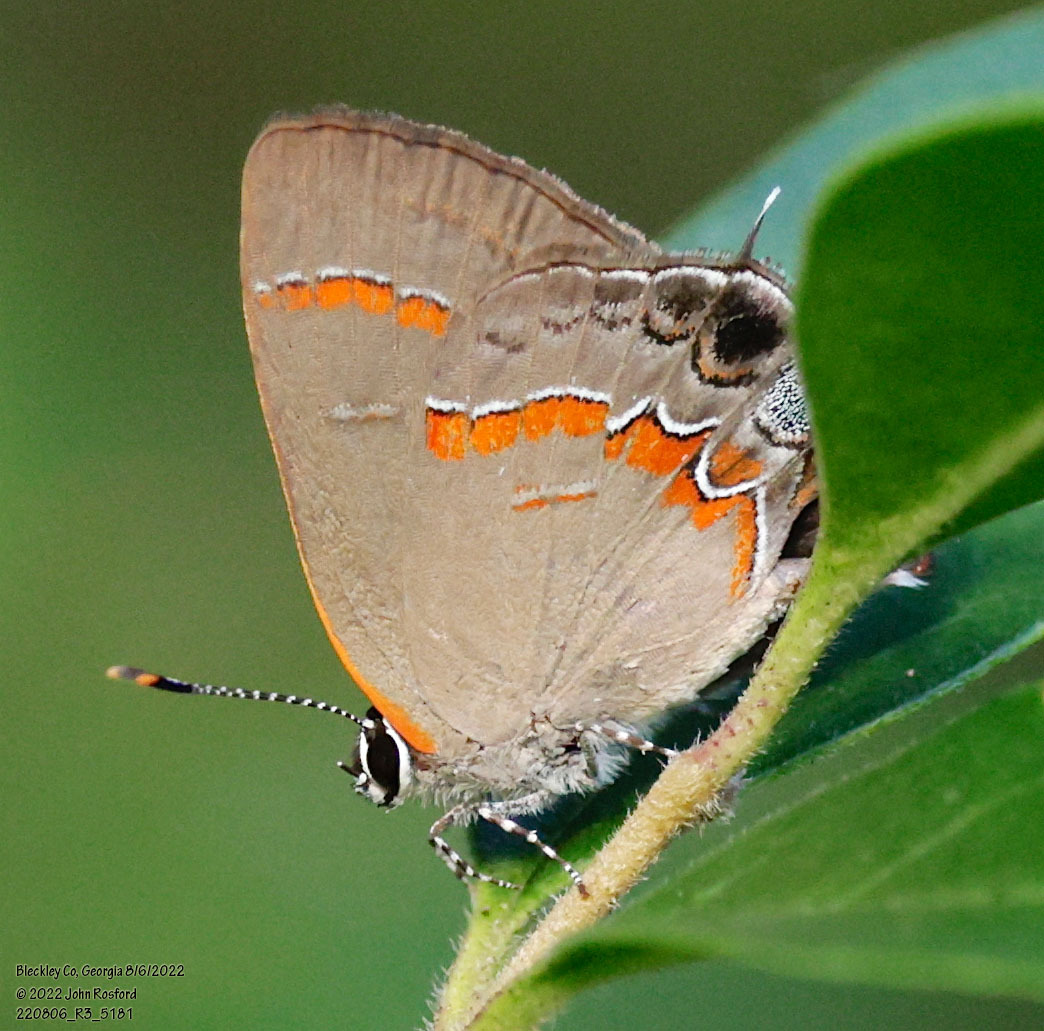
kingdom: Animalia
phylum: Arthropoda
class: Insecta
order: Lepidoptera
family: Lycaenidae
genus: Calycopis
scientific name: Calycopis cecrops
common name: Red-banded hairstreak
